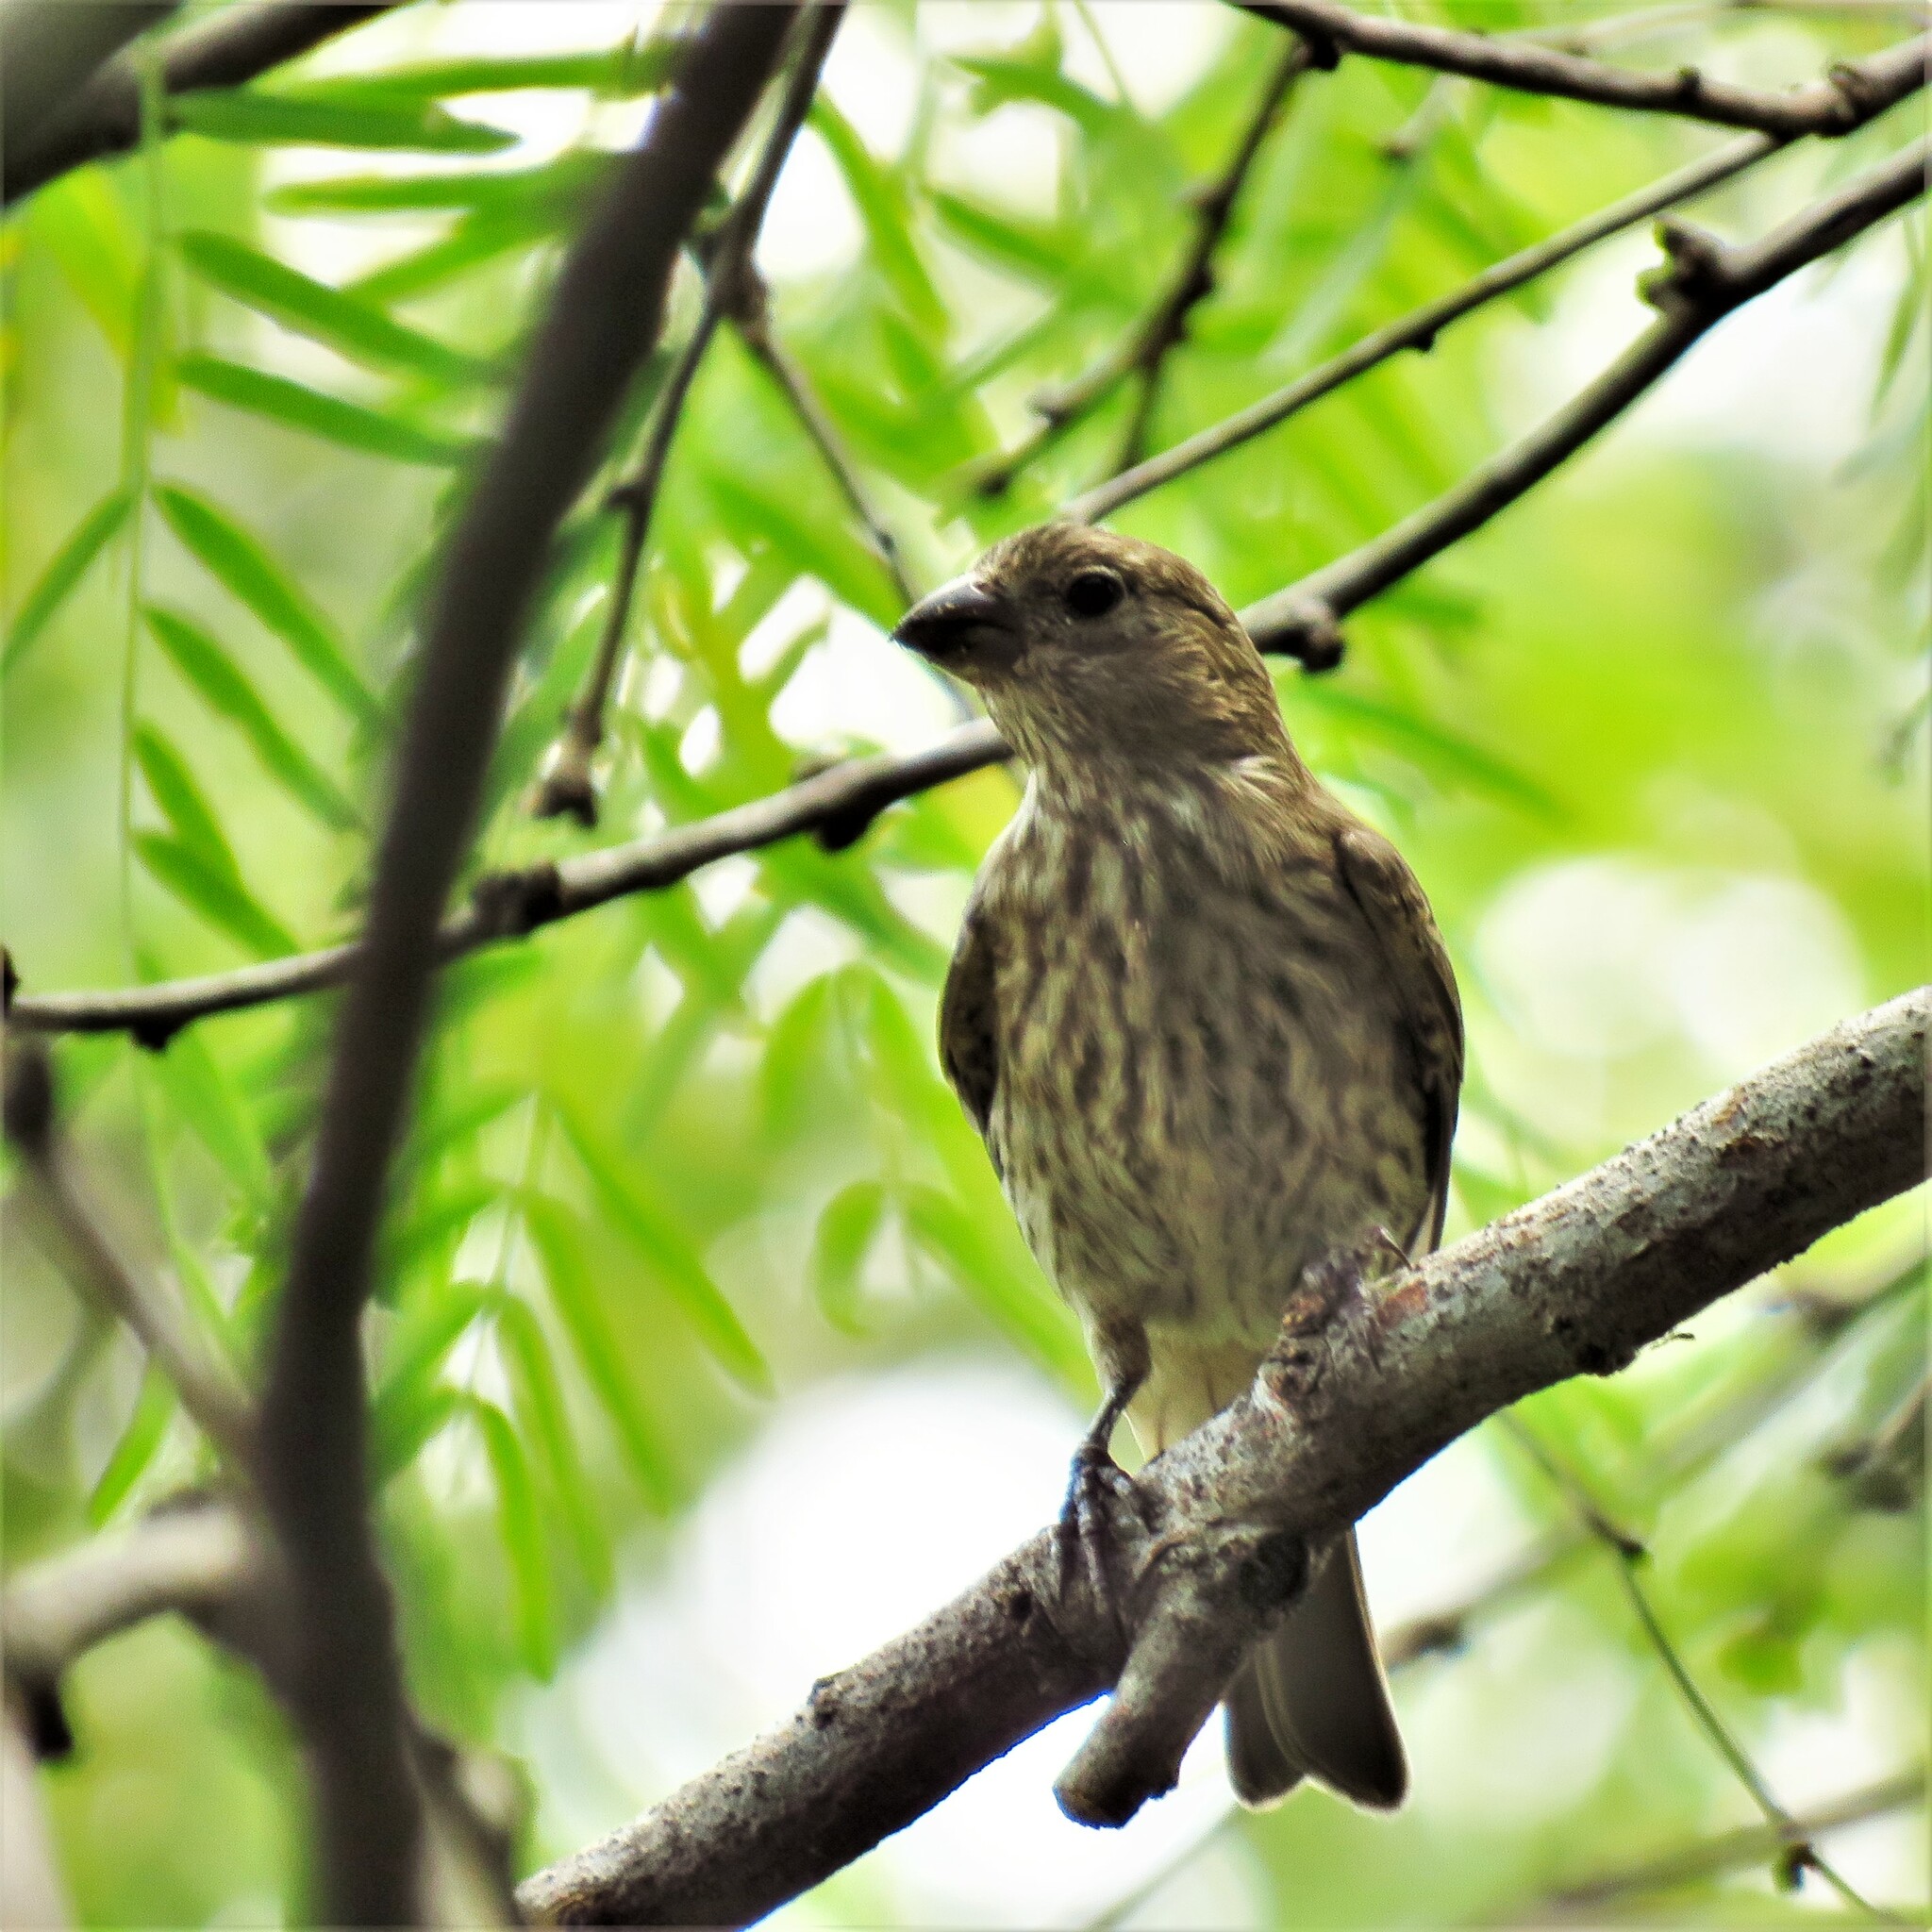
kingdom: Animalia
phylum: Chordata
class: Aves
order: Passeriformes
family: Fringillidae
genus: Haemorhous
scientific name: Haemorhous mexicanus
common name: House finch
